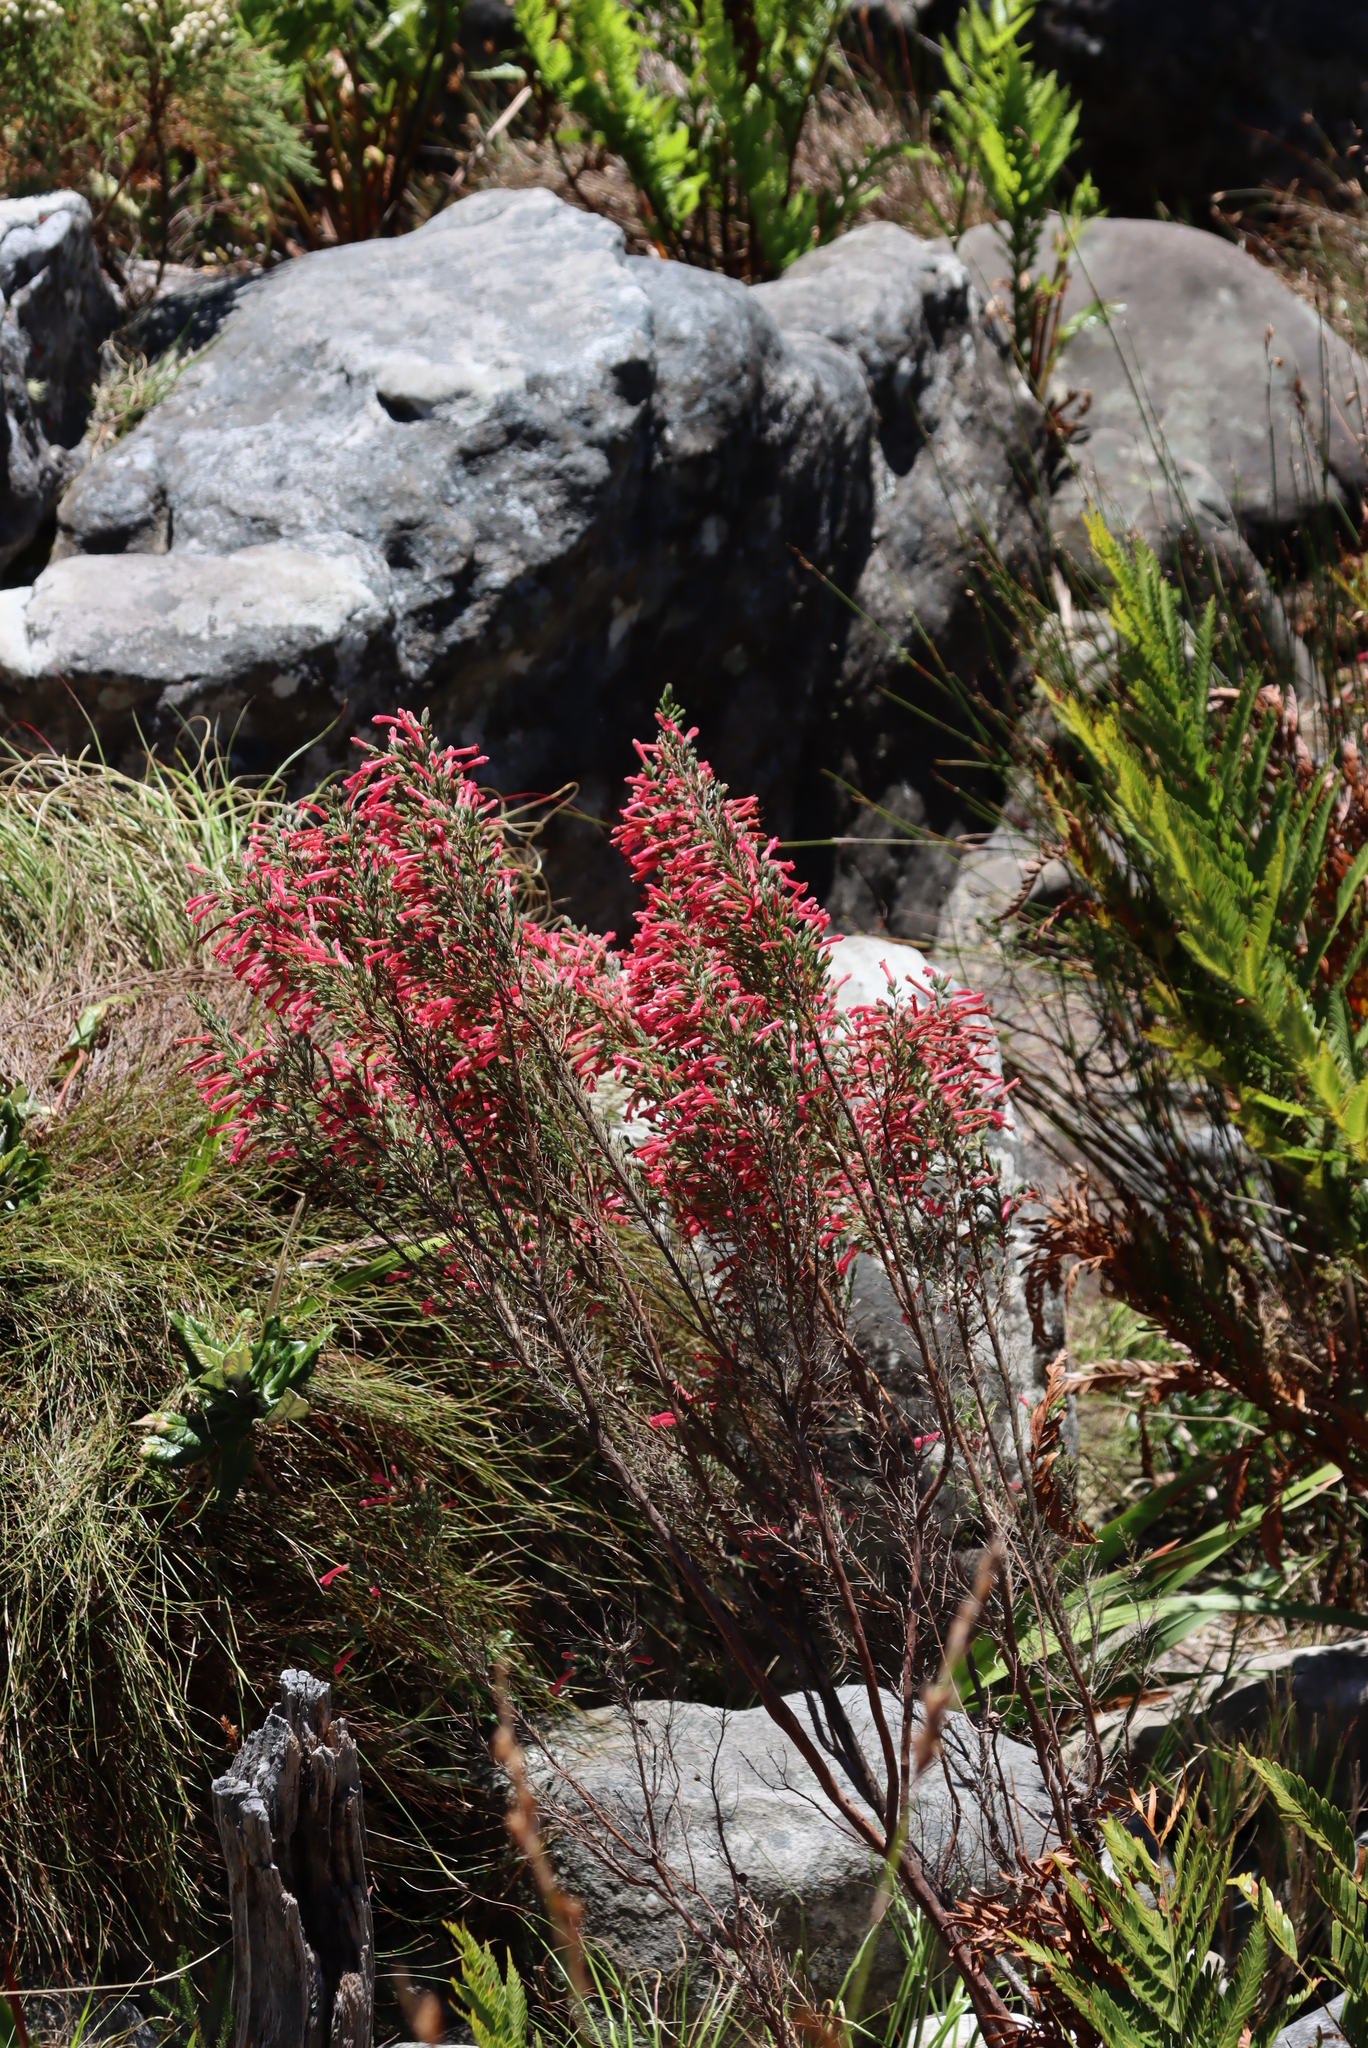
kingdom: Plantae
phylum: Tracheophyta
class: Magnoliopsida
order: Ericales
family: Ericaceae
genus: Erica
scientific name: Erica curviflora
